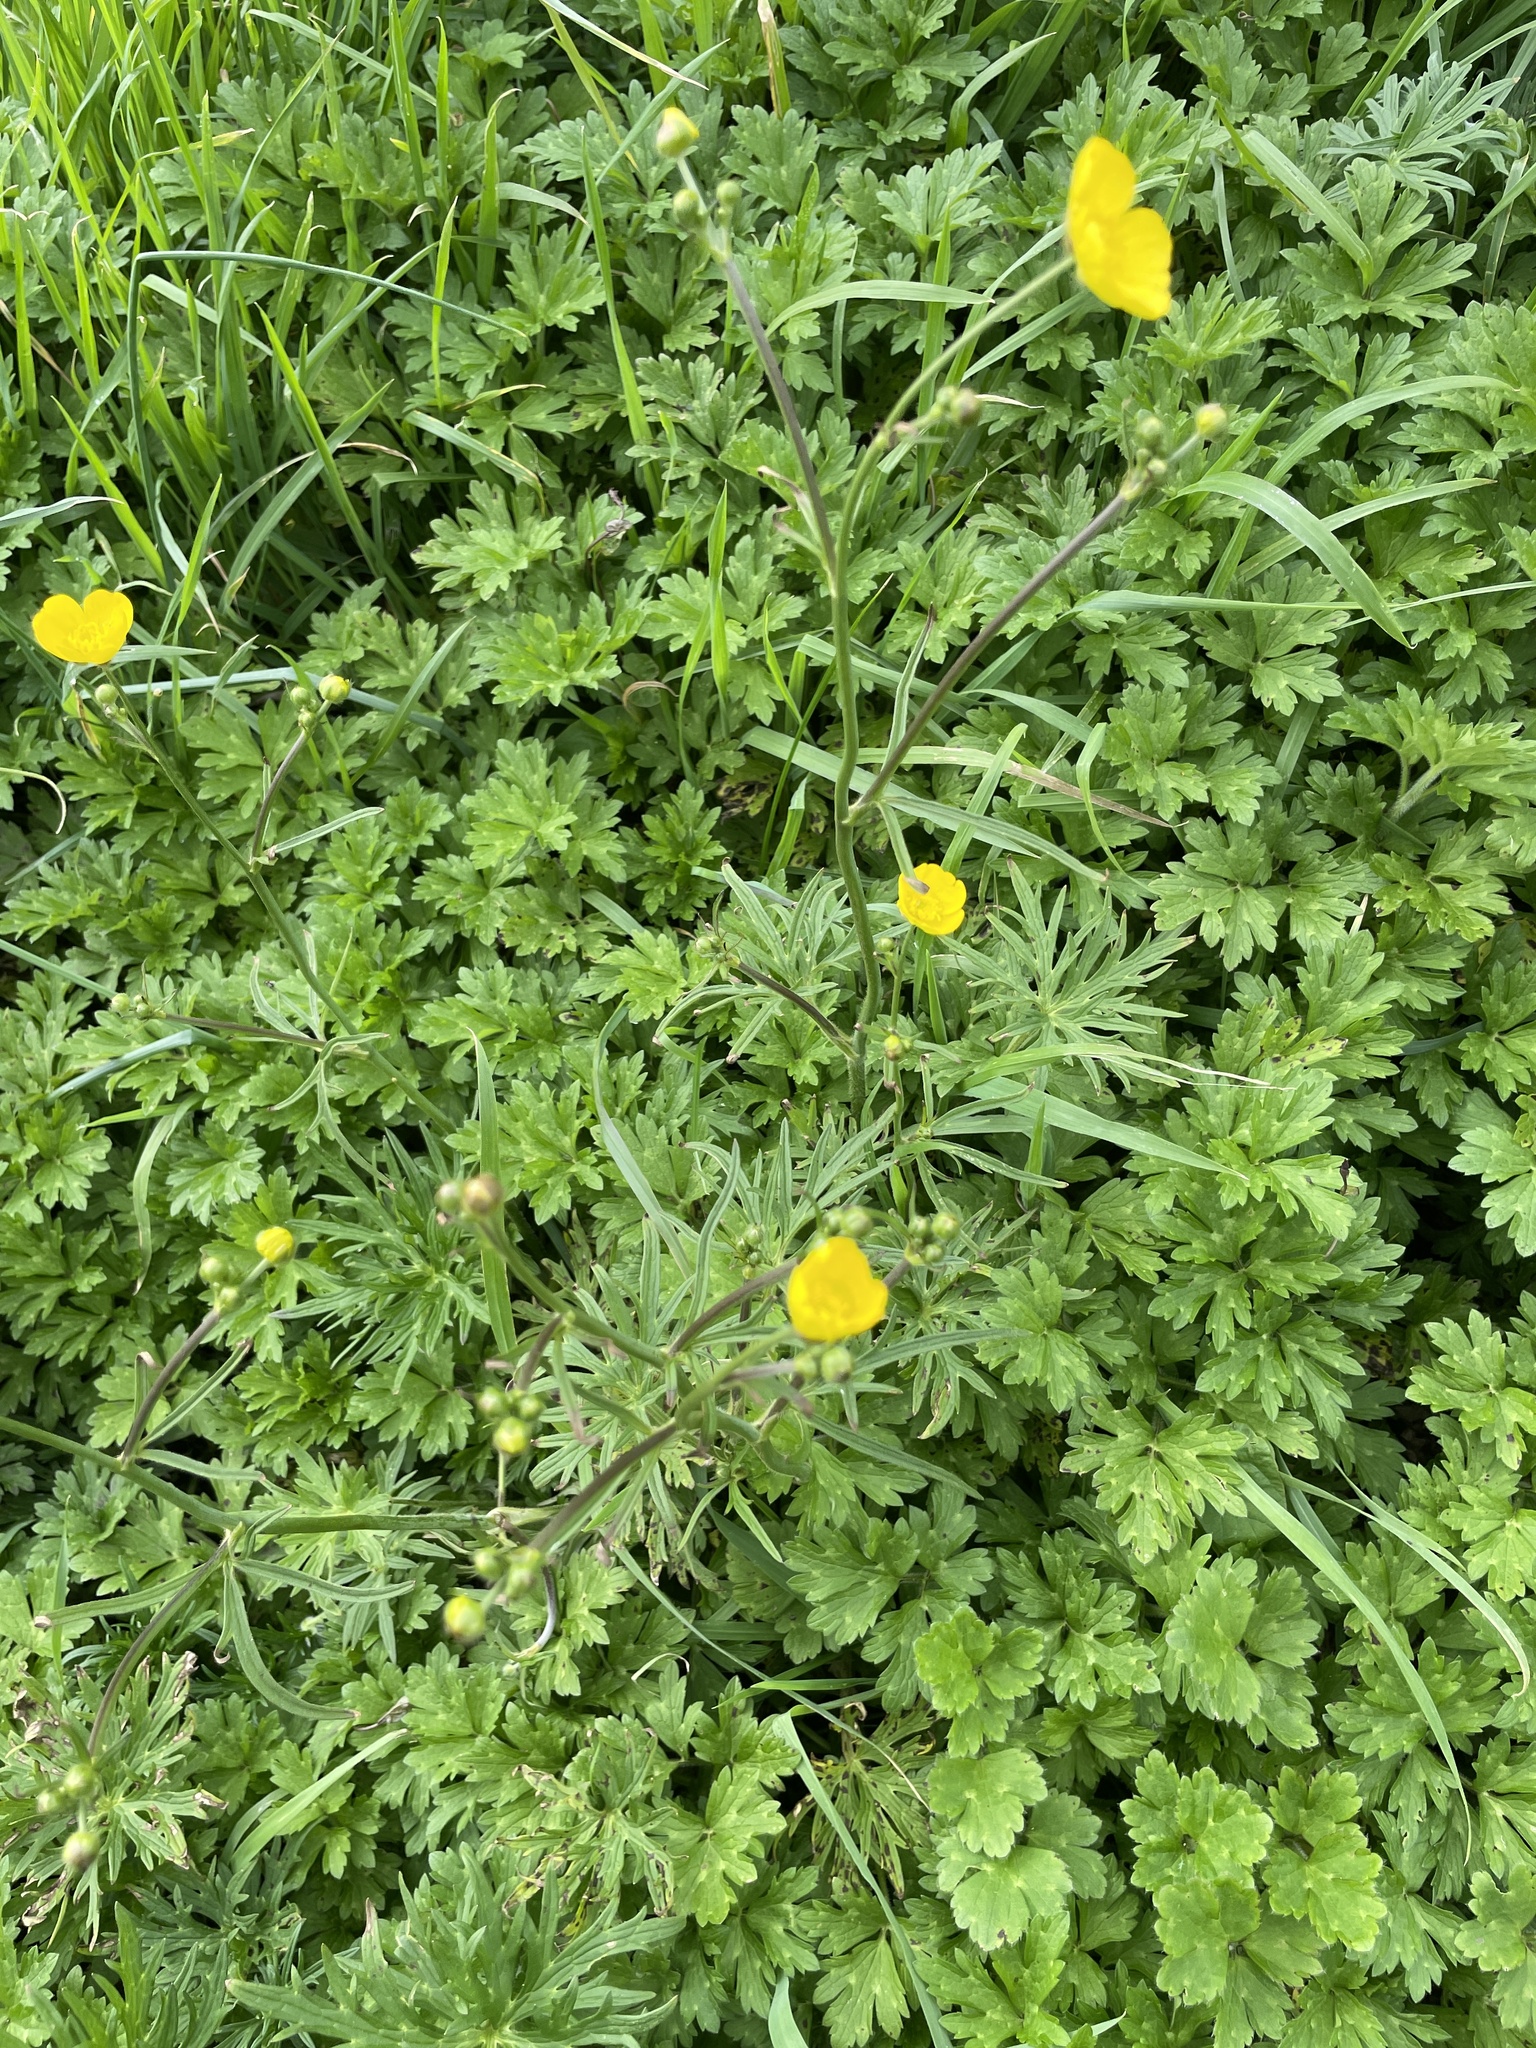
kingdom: Plantae
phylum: Tracheophyta
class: Magnoliopsida
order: Ranunculales
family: Ranunculaceae
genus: Ranunculus
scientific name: Ranunculus acris
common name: Meadow buttercup
